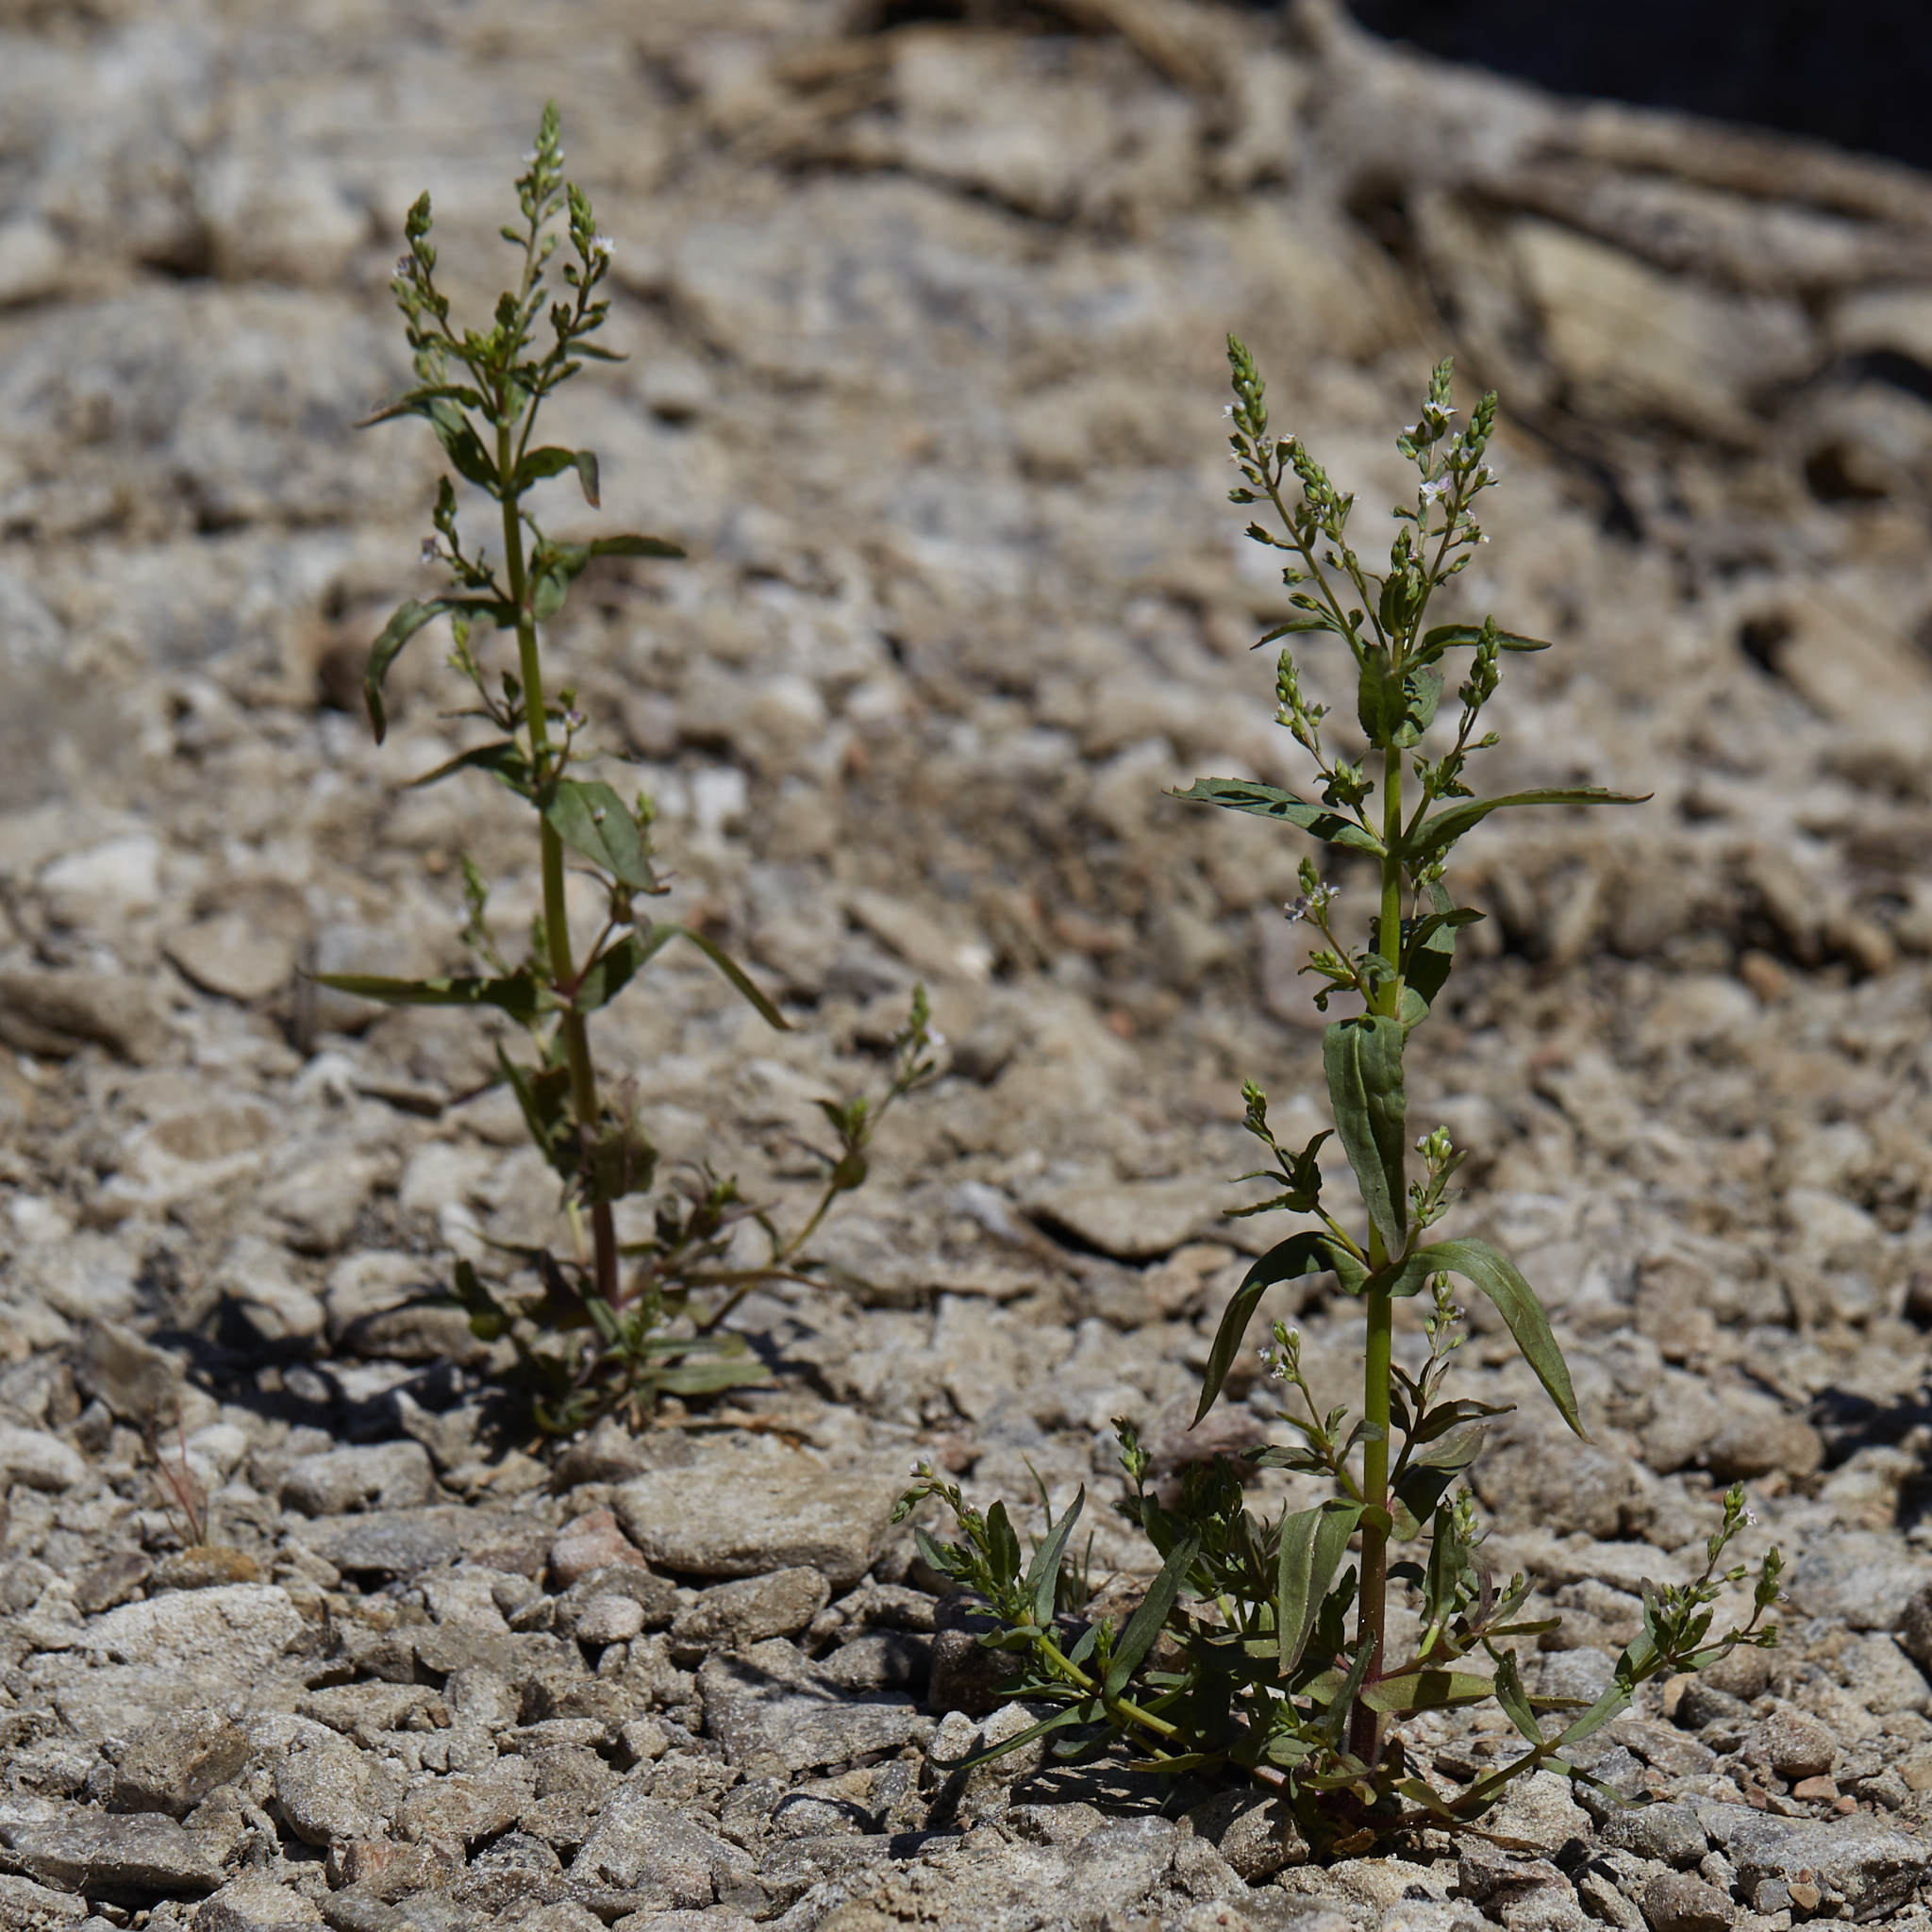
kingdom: Plantae
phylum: Tracheophyta
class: Magnoliopsida
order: Lamiales
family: Plantaginaceae
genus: Veronica
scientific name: Veronica anagallis-aquatica
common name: Water speedwell
